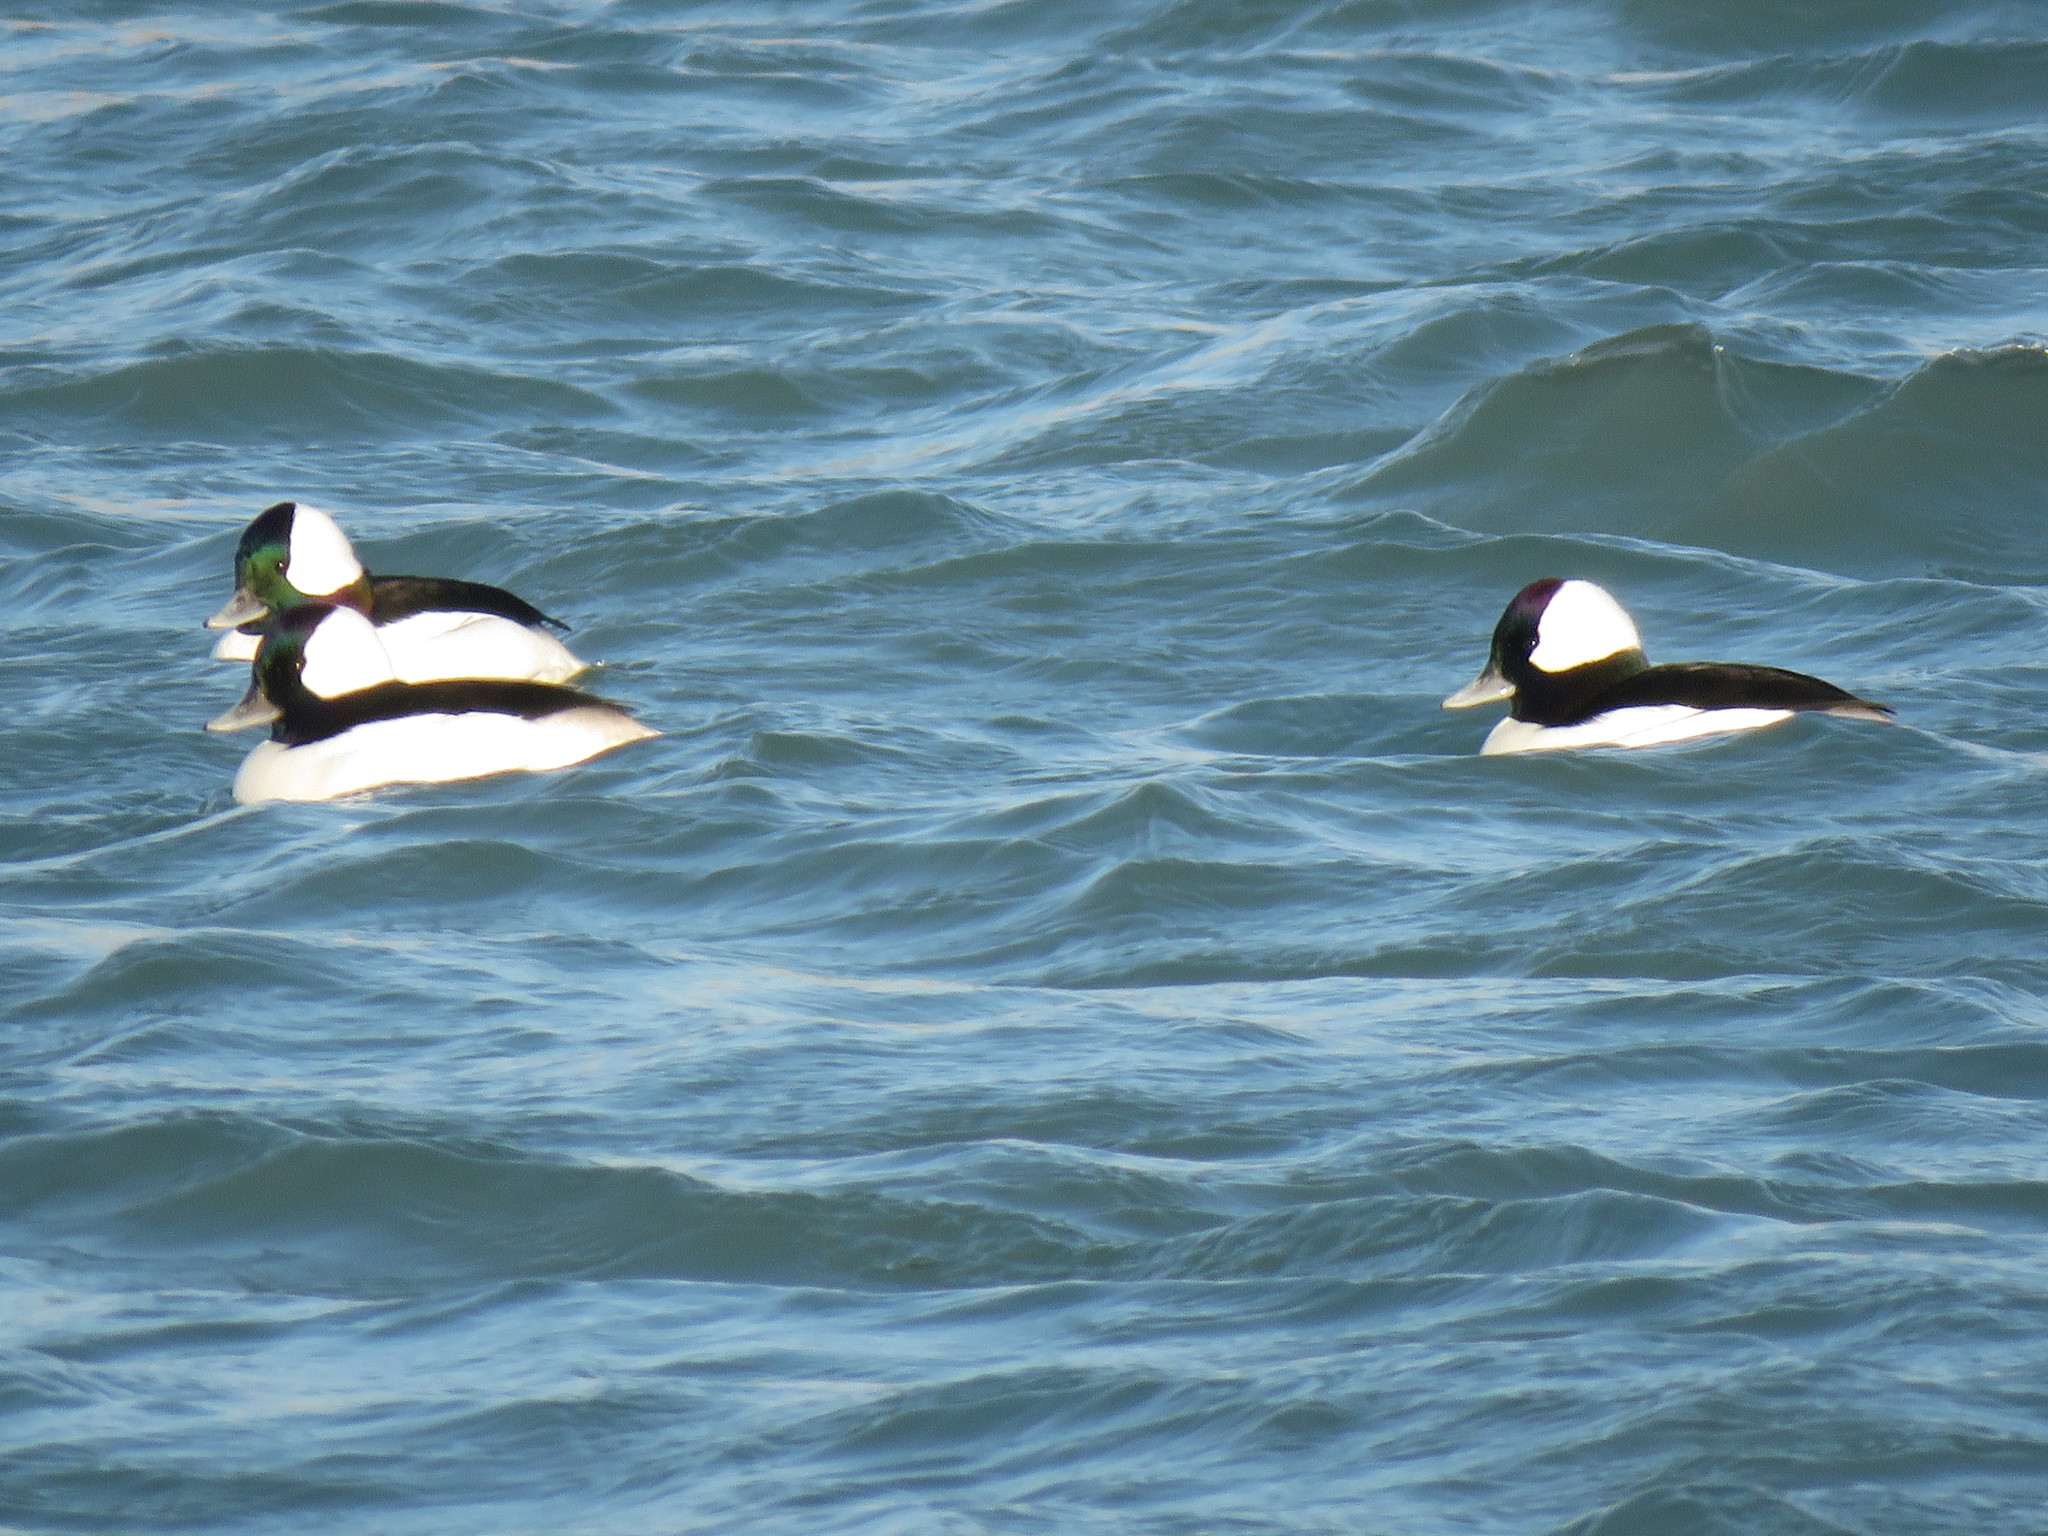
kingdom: Animalia
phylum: Chordata
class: Aves
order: Anseriformes
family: Anatidae
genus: Bucephala
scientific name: Bucephala albeola
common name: Bufflehead
